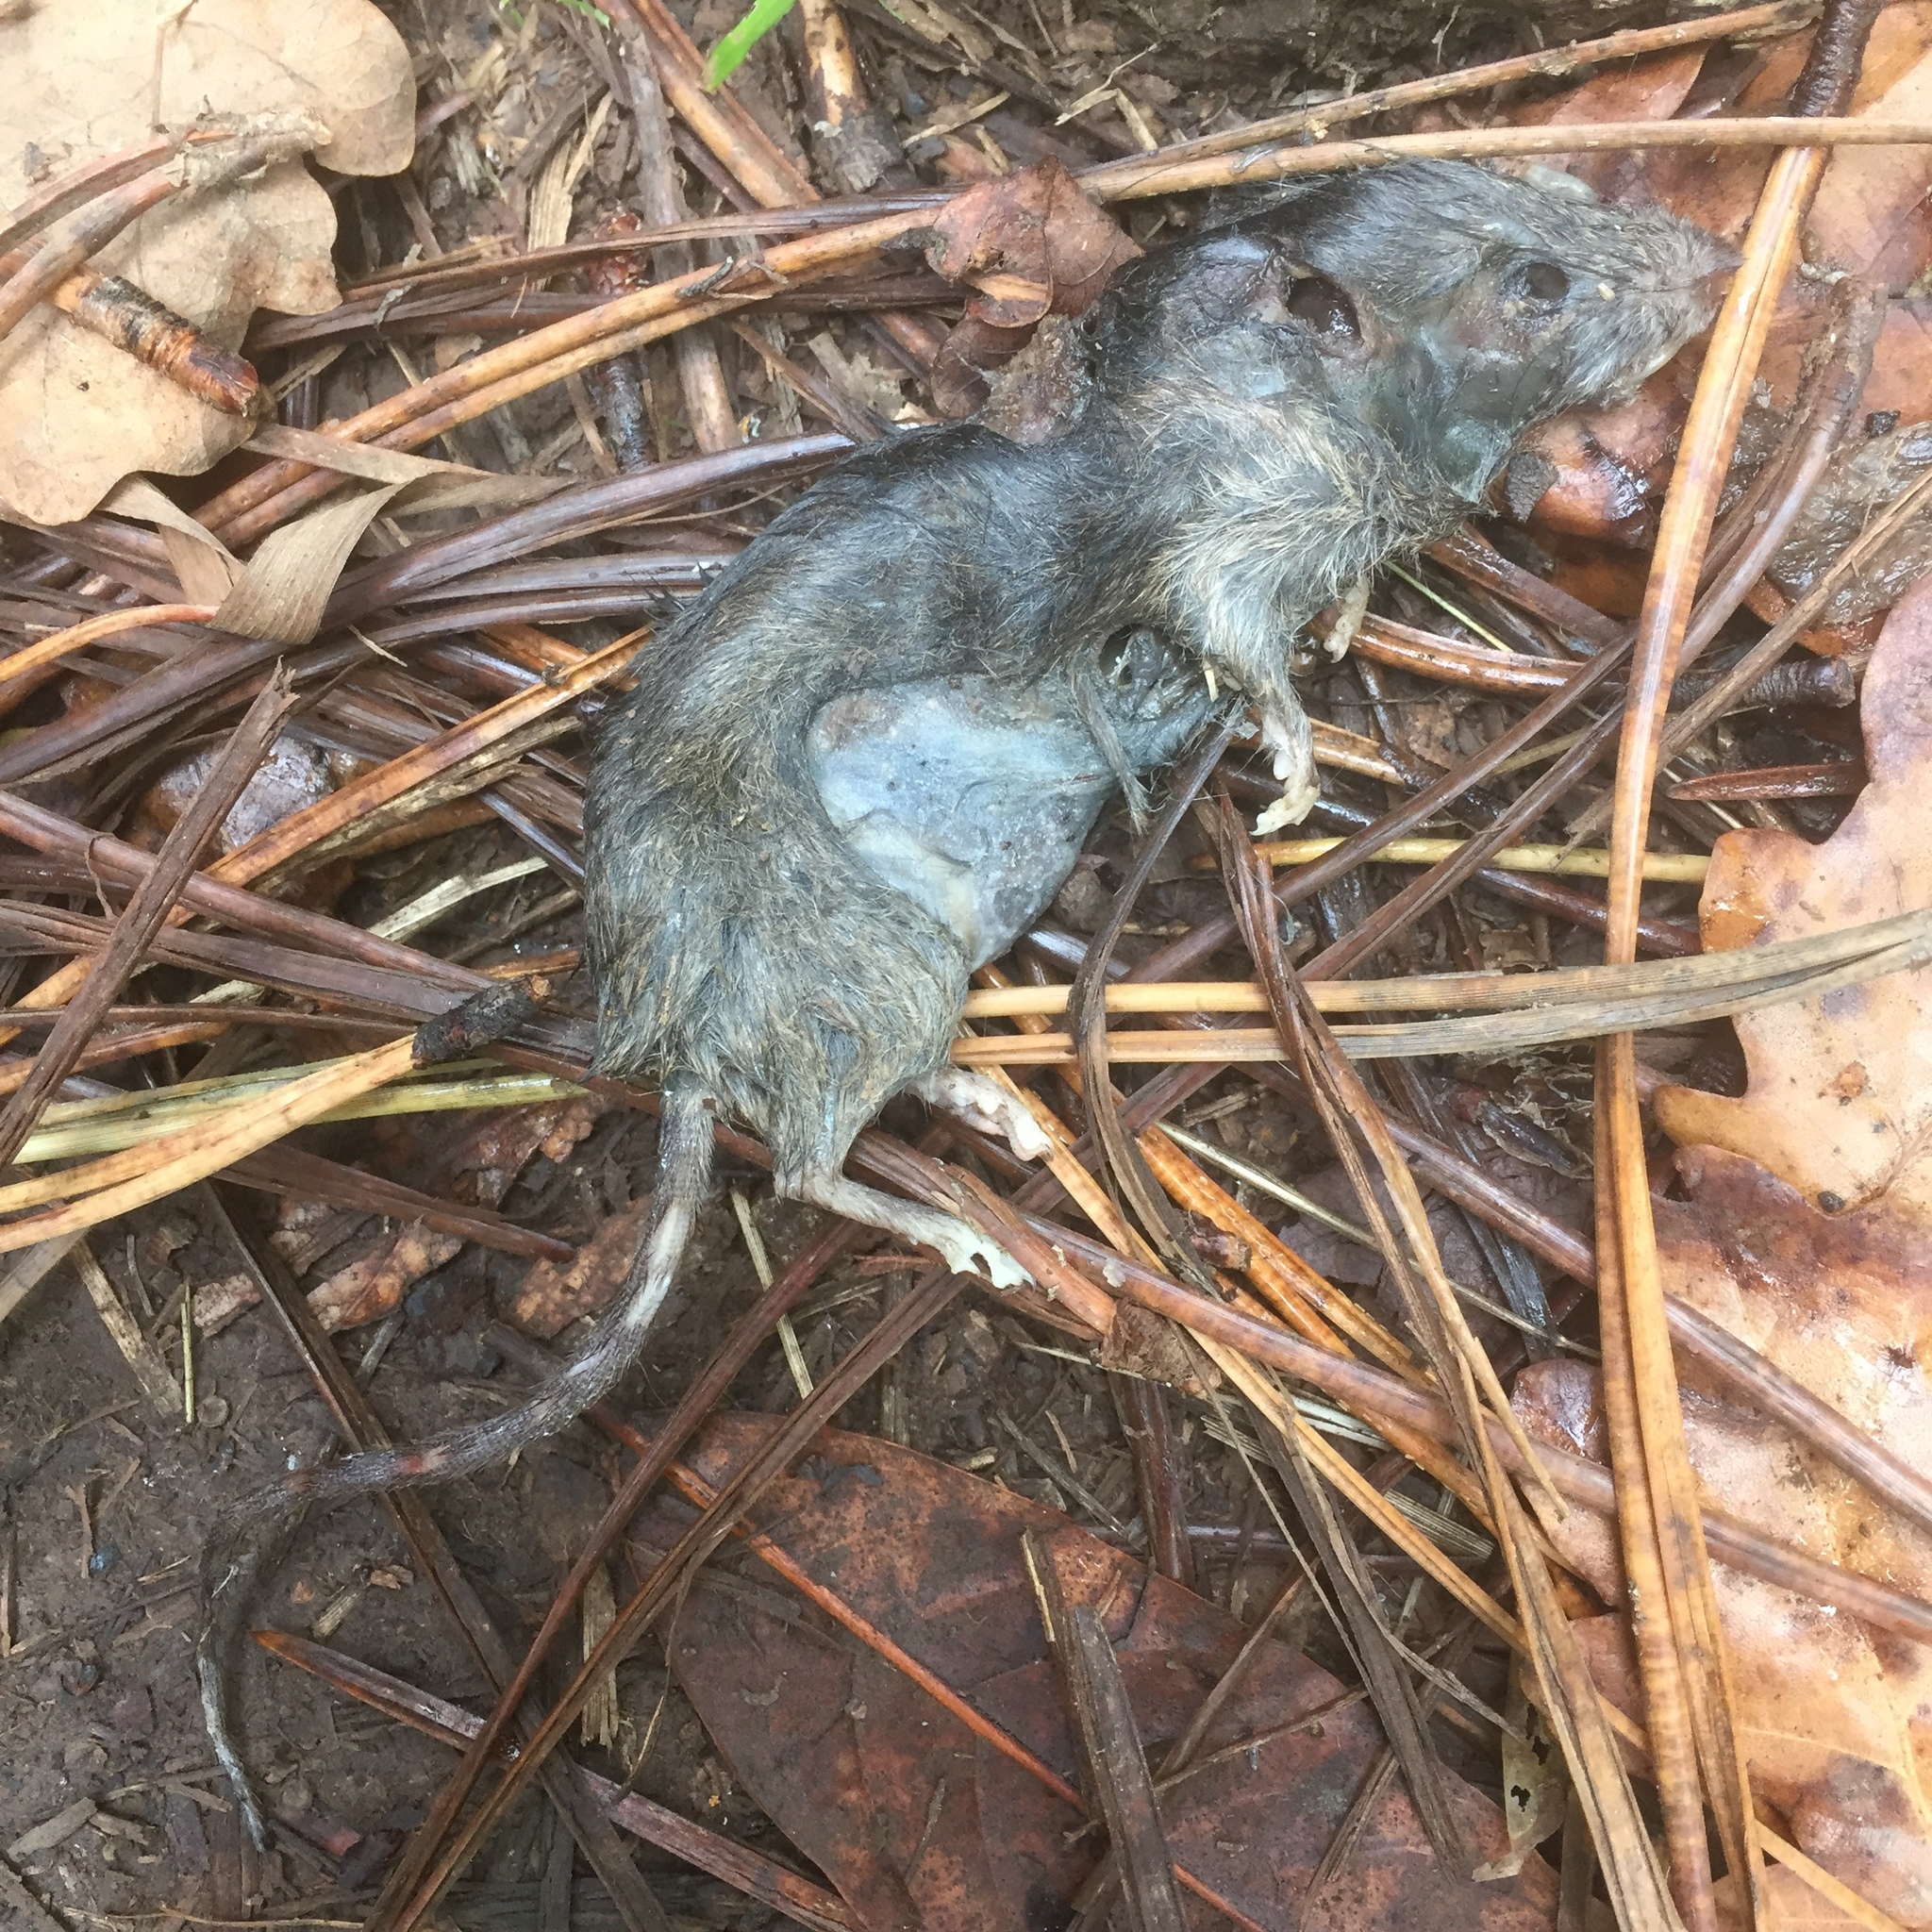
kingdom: Animalia
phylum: Chordata
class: Mammalia
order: Rodentia
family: Muridae
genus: Mus
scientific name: Mus musculus
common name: House mouse
